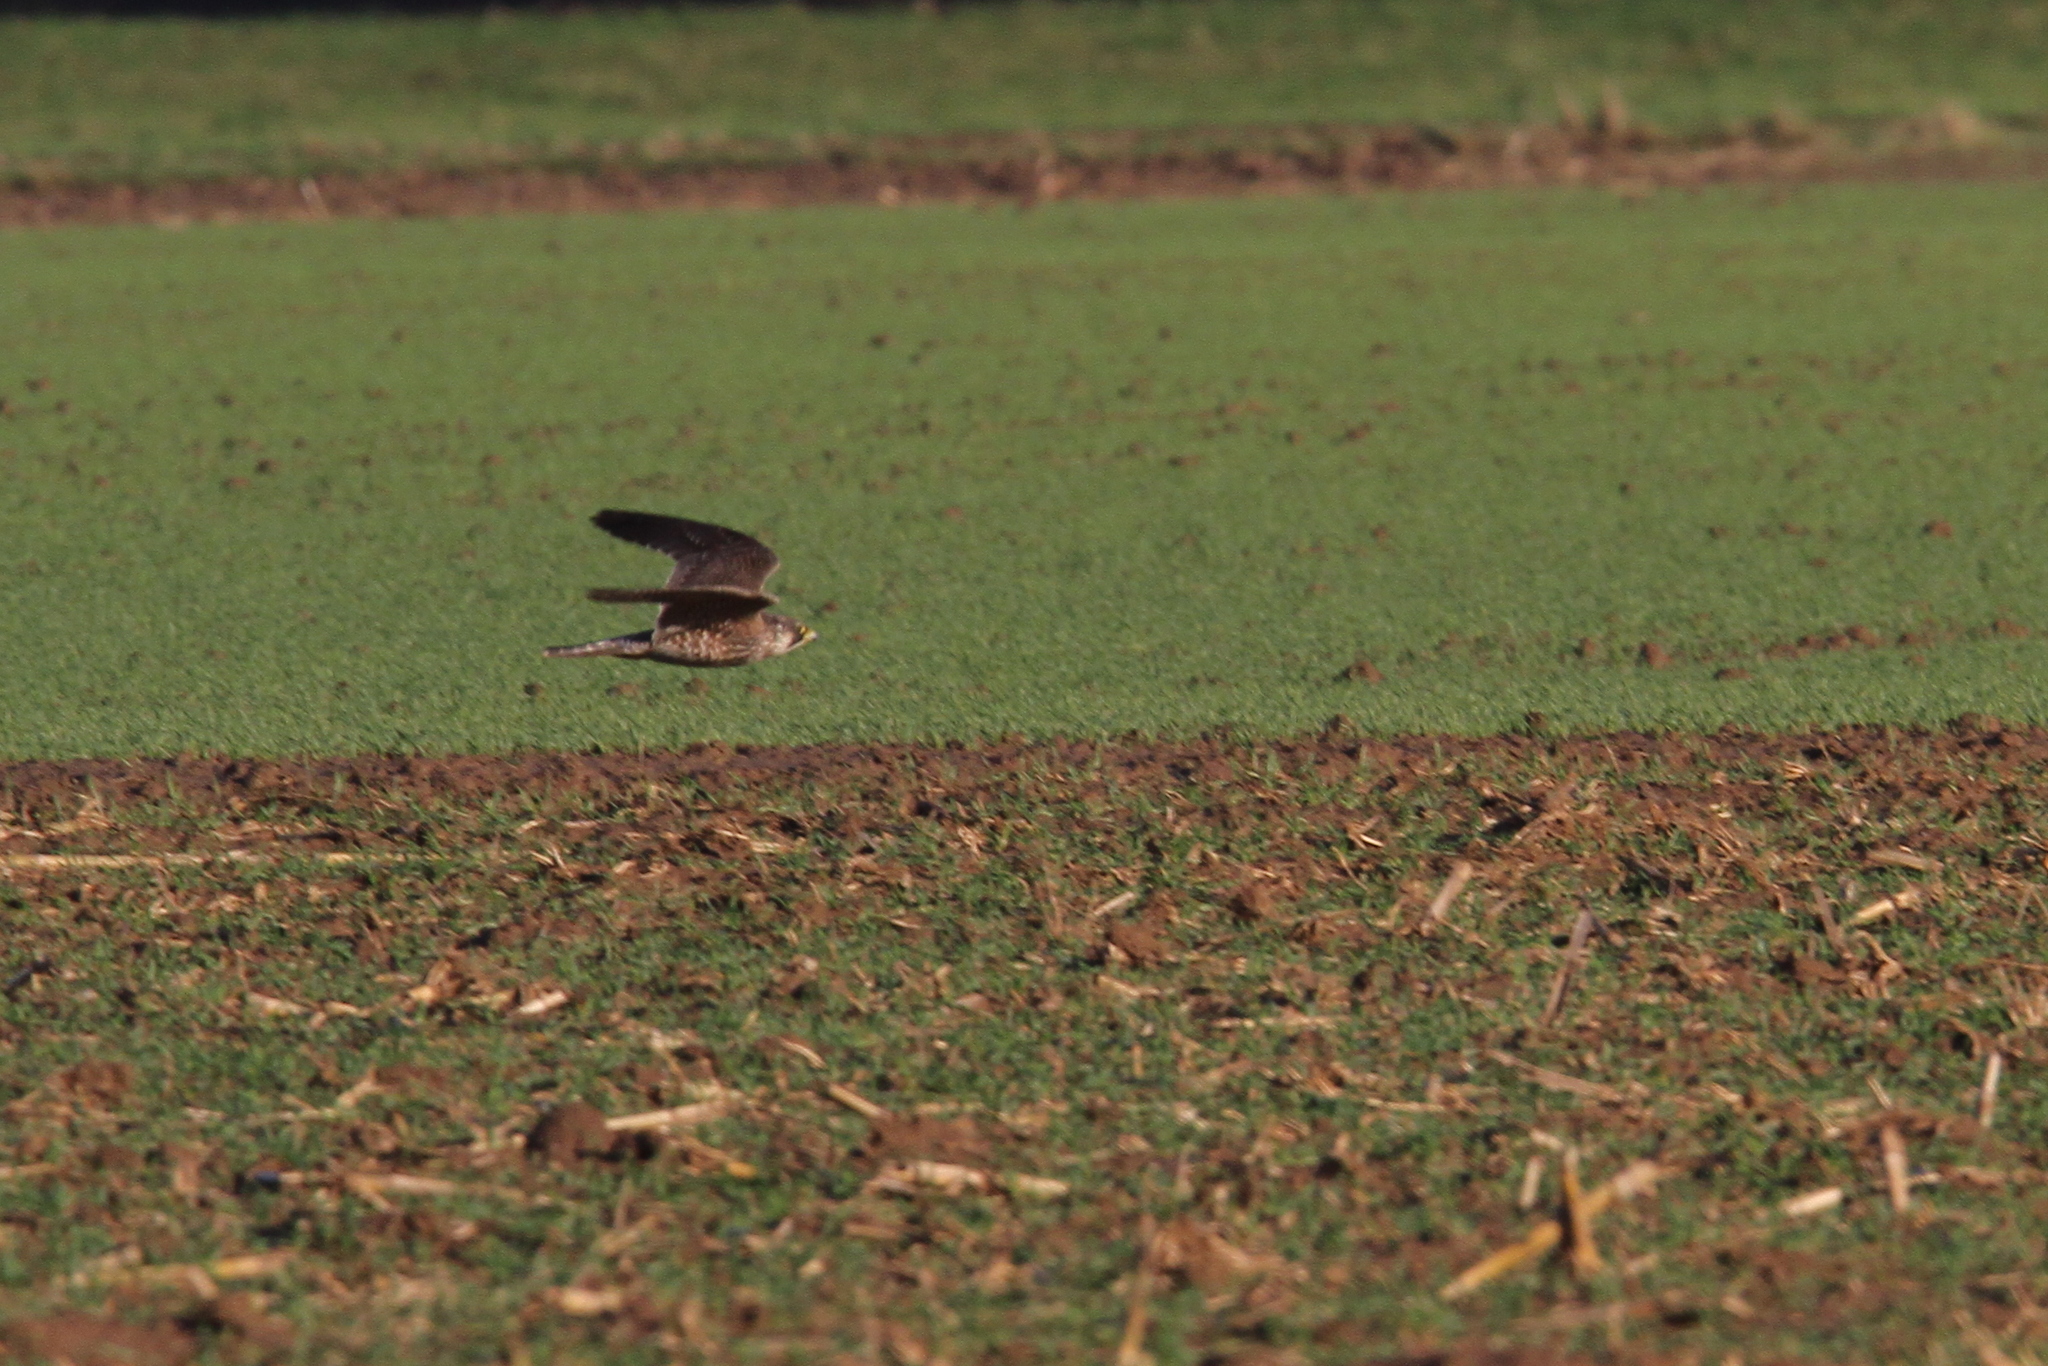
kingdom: Animalia
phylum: Chordata
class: Aves
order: Falconiformes
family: Falconidae
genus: Falco
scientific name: Falco peregrinus
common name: Peregrine falcon
